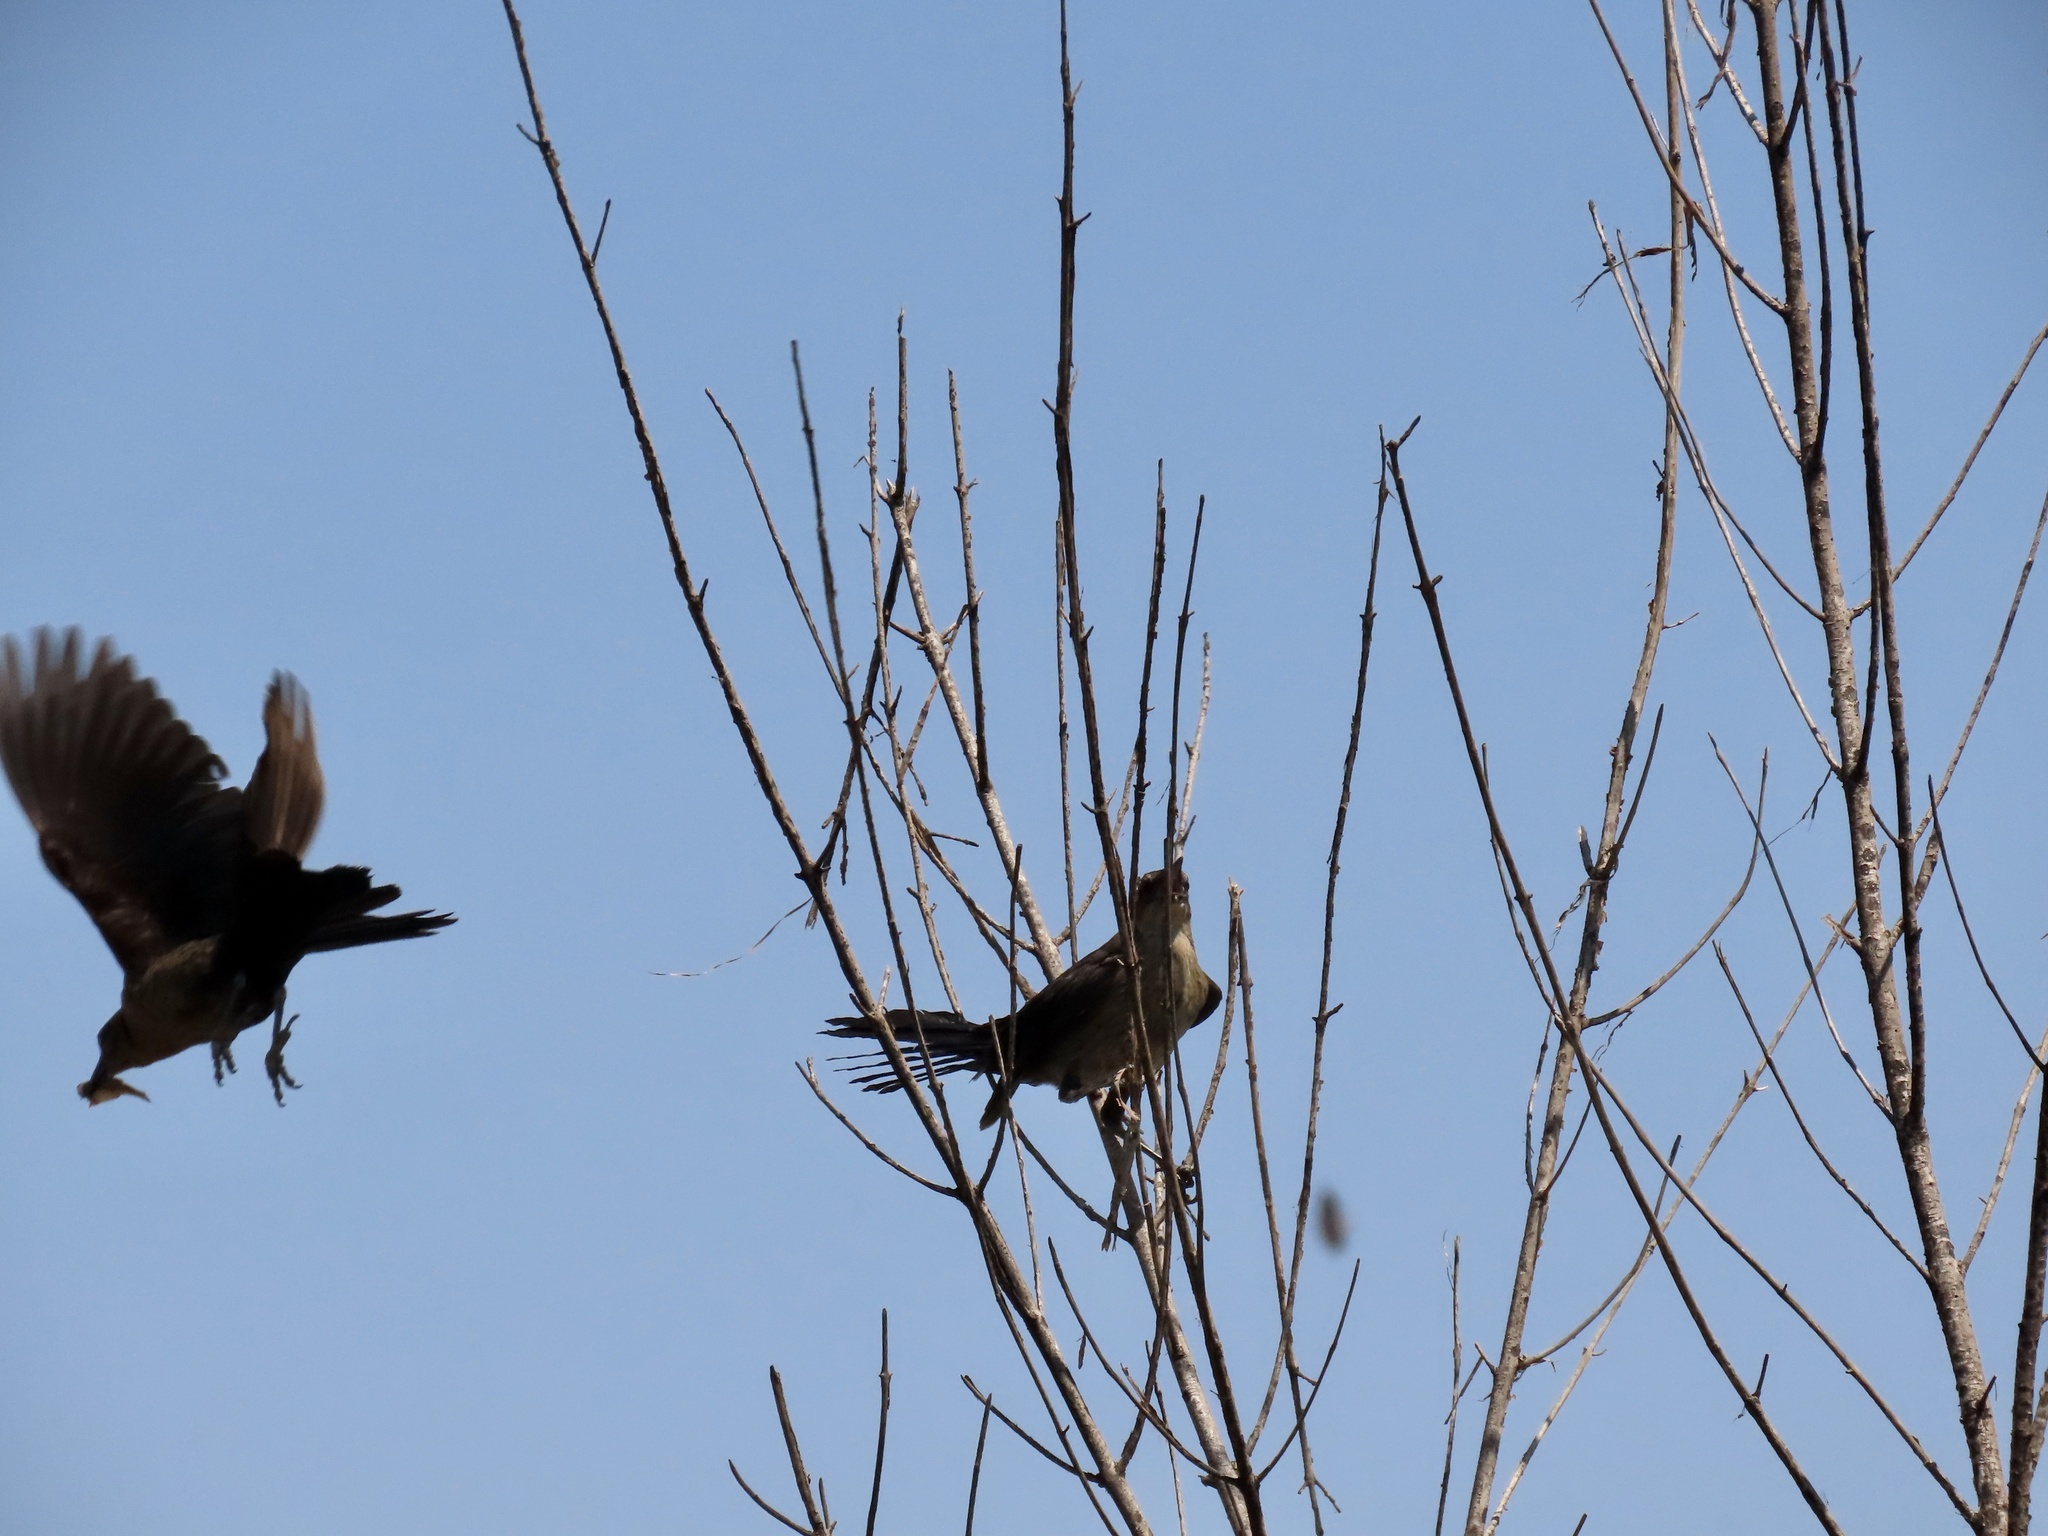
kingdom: Animalia
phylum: Chordata
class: Aves
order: Passeriformes
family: Icteridae
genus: Quiscalus
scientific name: Quiscalus mexicanus
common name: Great-tailed grackle
